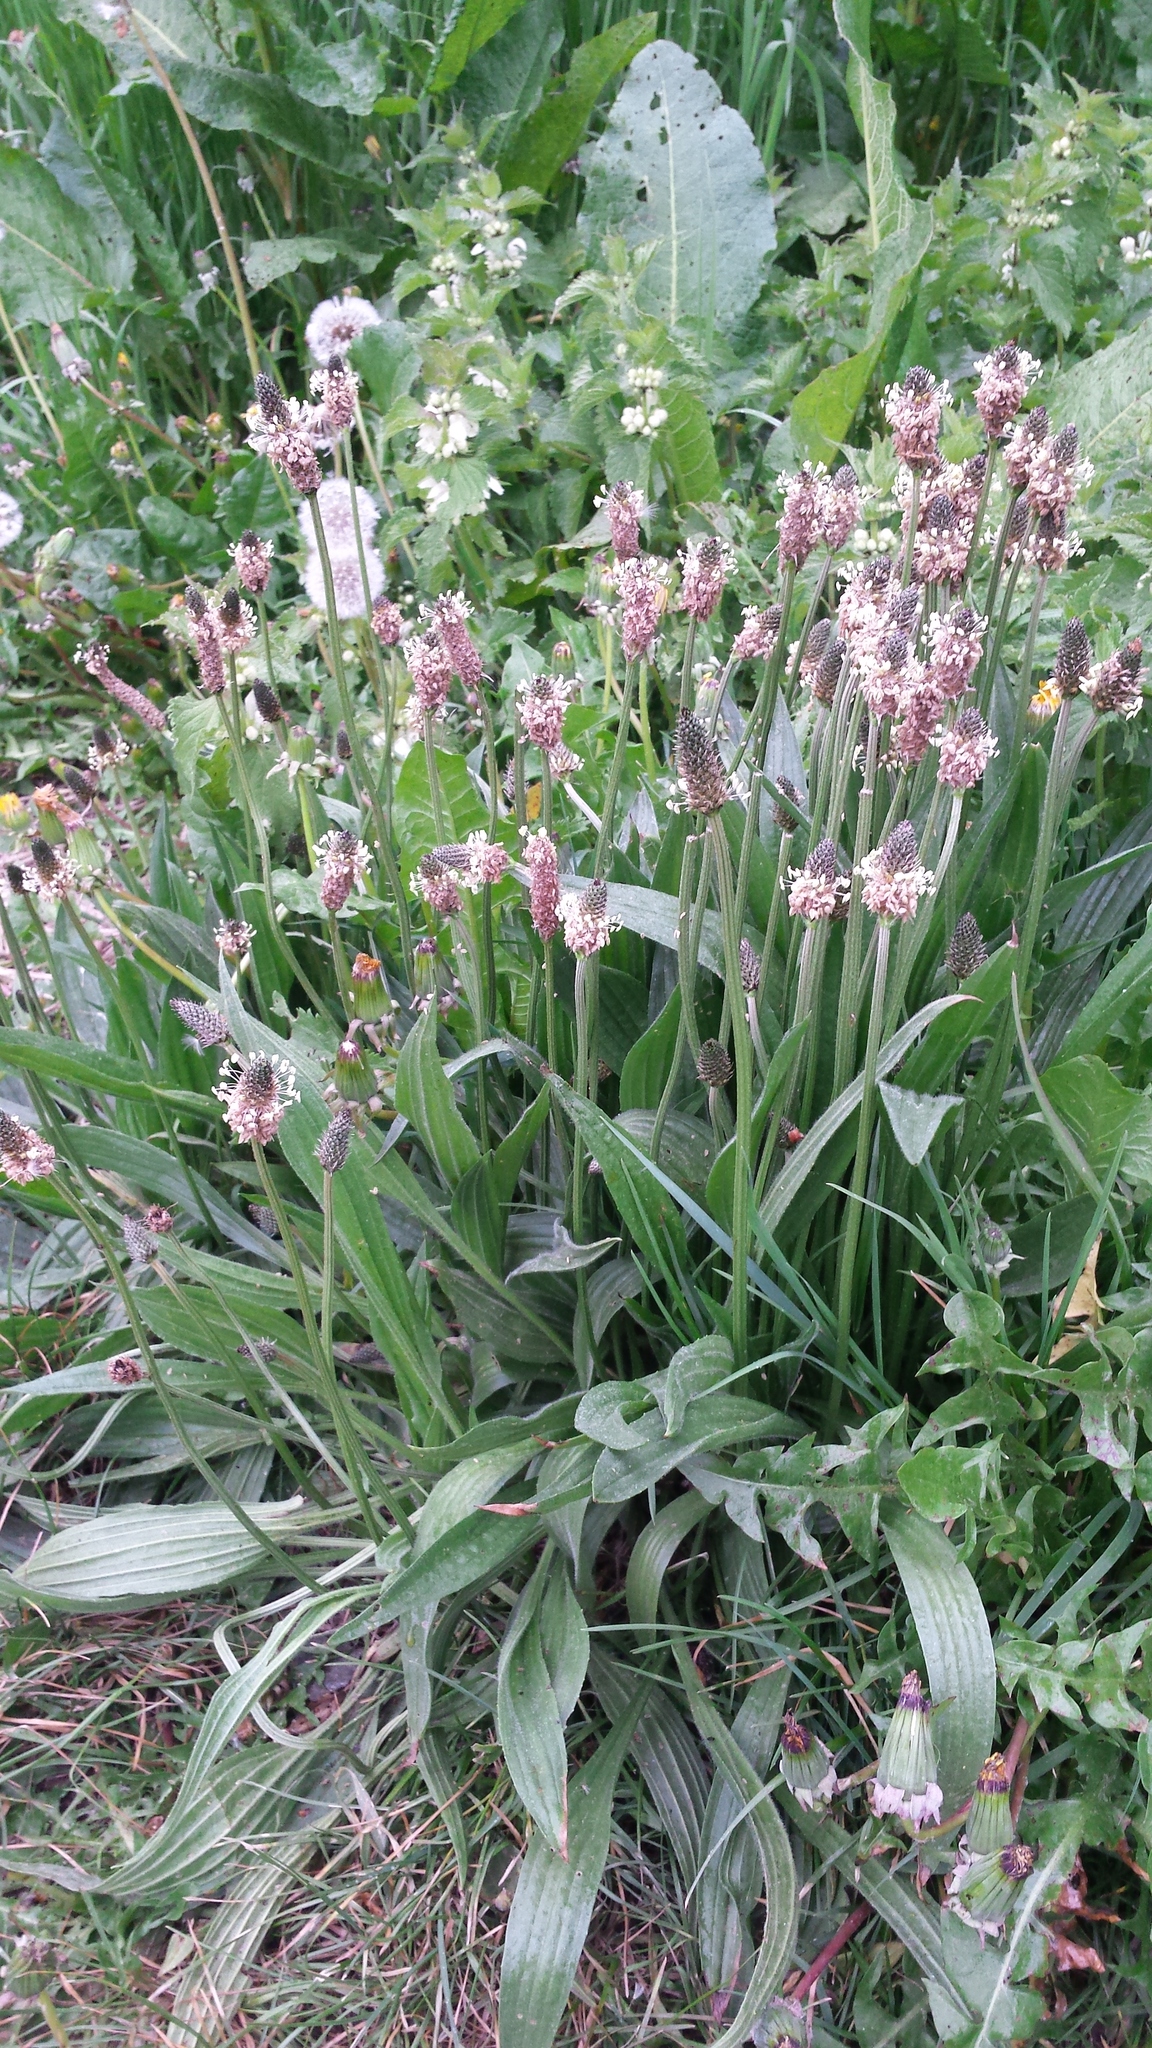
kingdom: Plantae
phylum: Tracheophyta
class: Magnoliopsida
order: Lamiales
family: Plantaginaceae
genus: Plantago
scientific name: Plantago lanceolata
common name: Ribwort plantain
